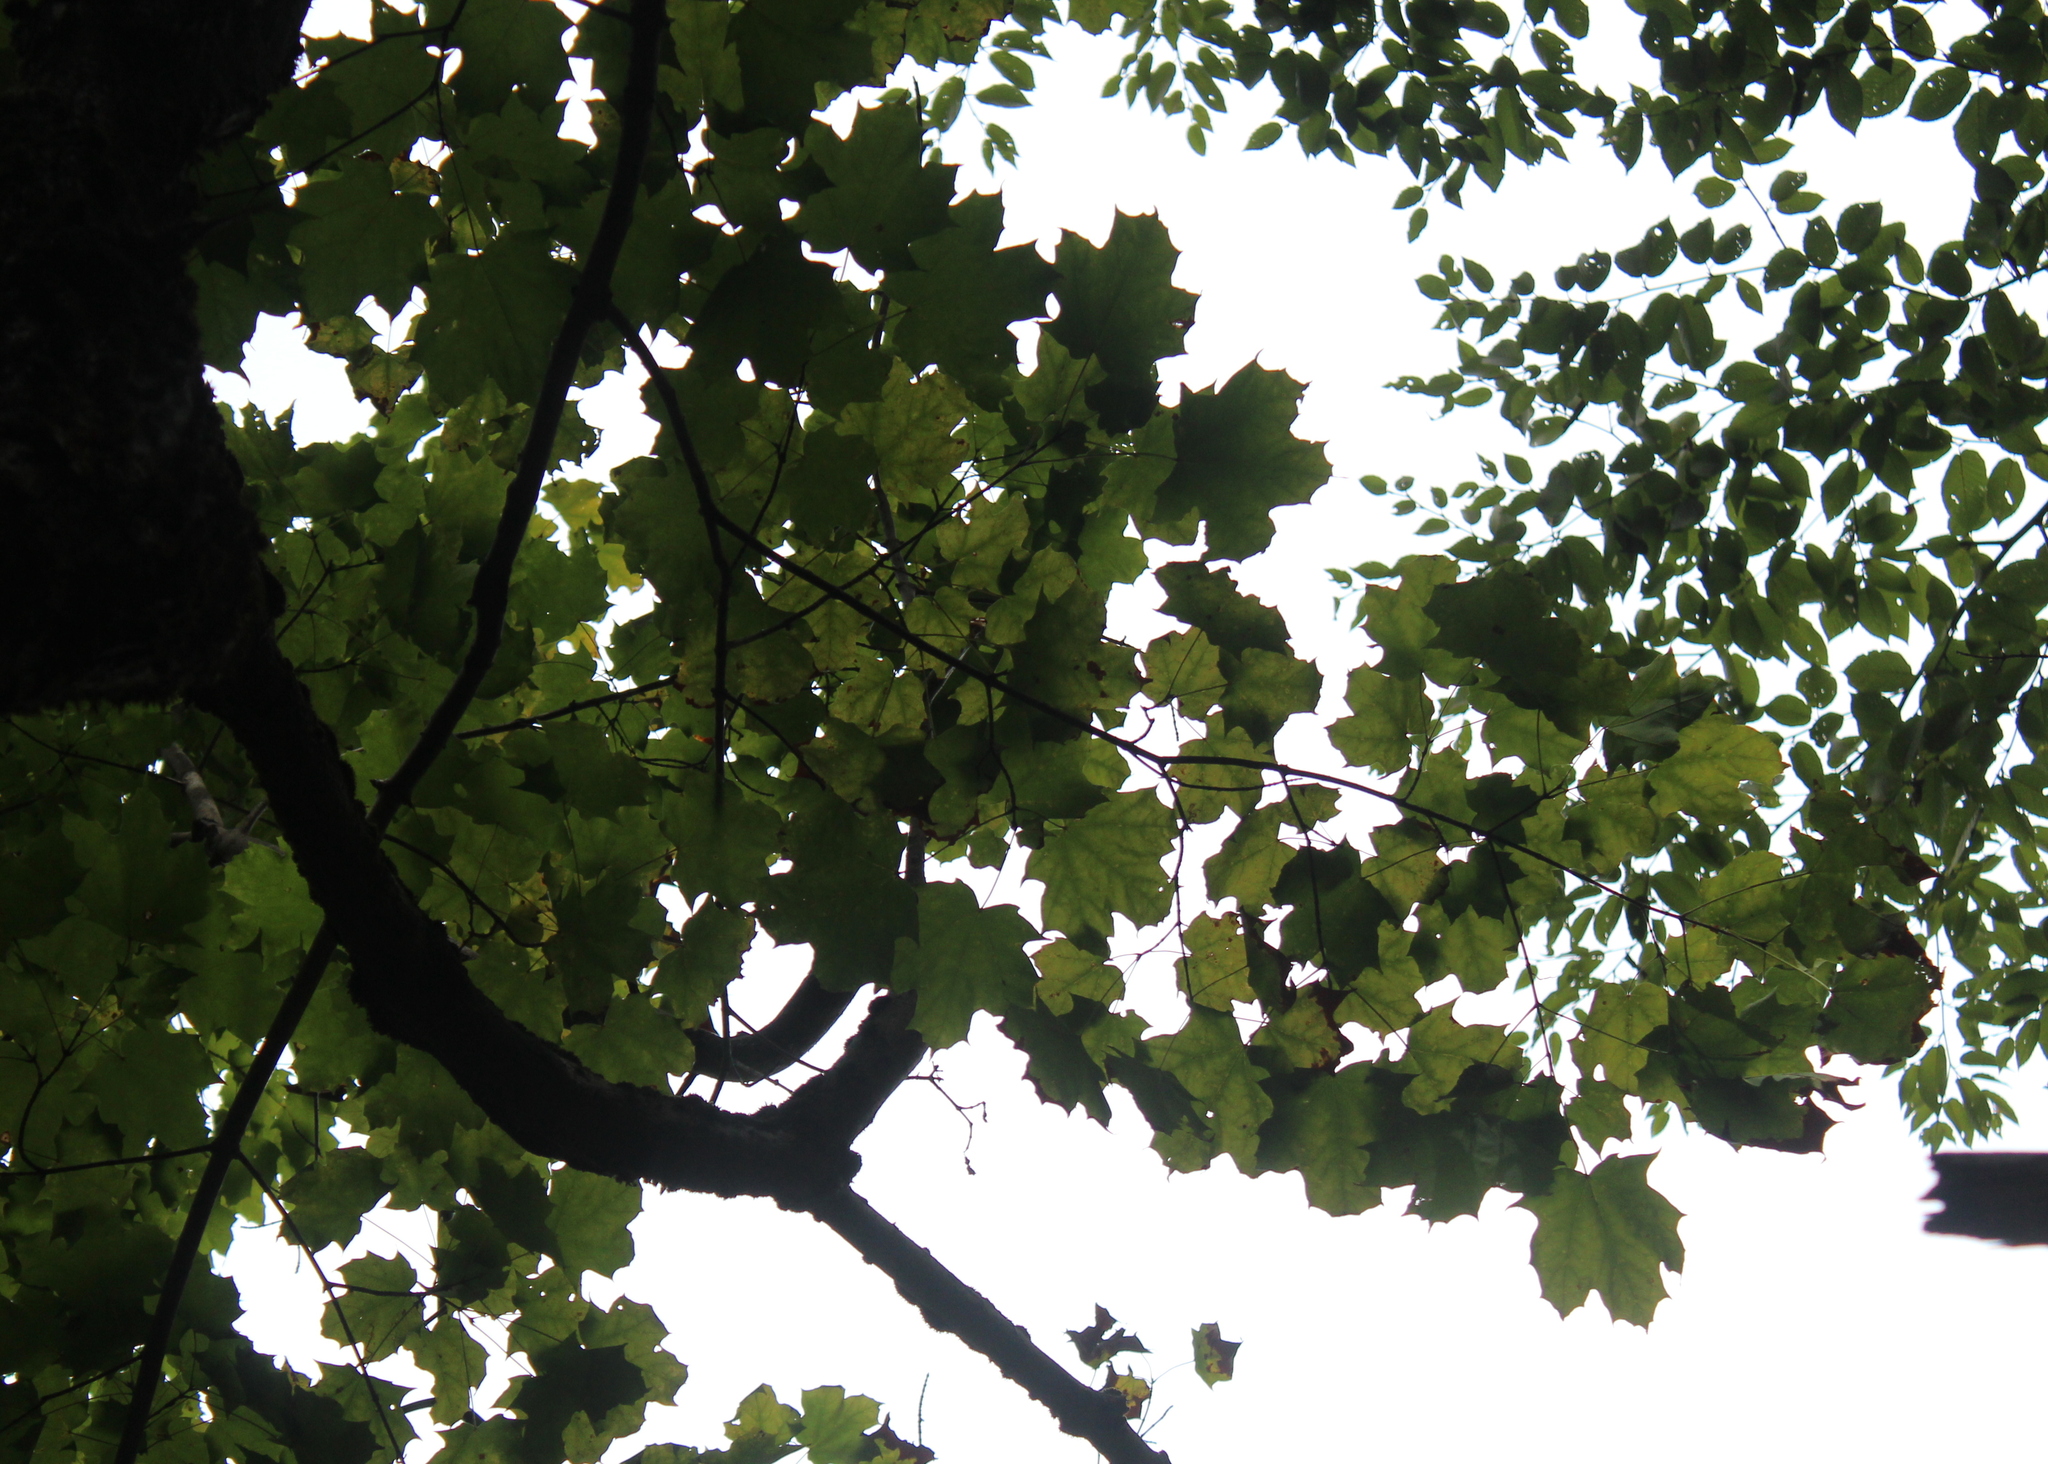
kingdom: Plantae
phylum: Tracheophyta
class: Magnoliopsida
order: Sapindales
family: Sapindaceae
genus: Acer
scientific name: Acer saccharum
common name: Sugar maple
